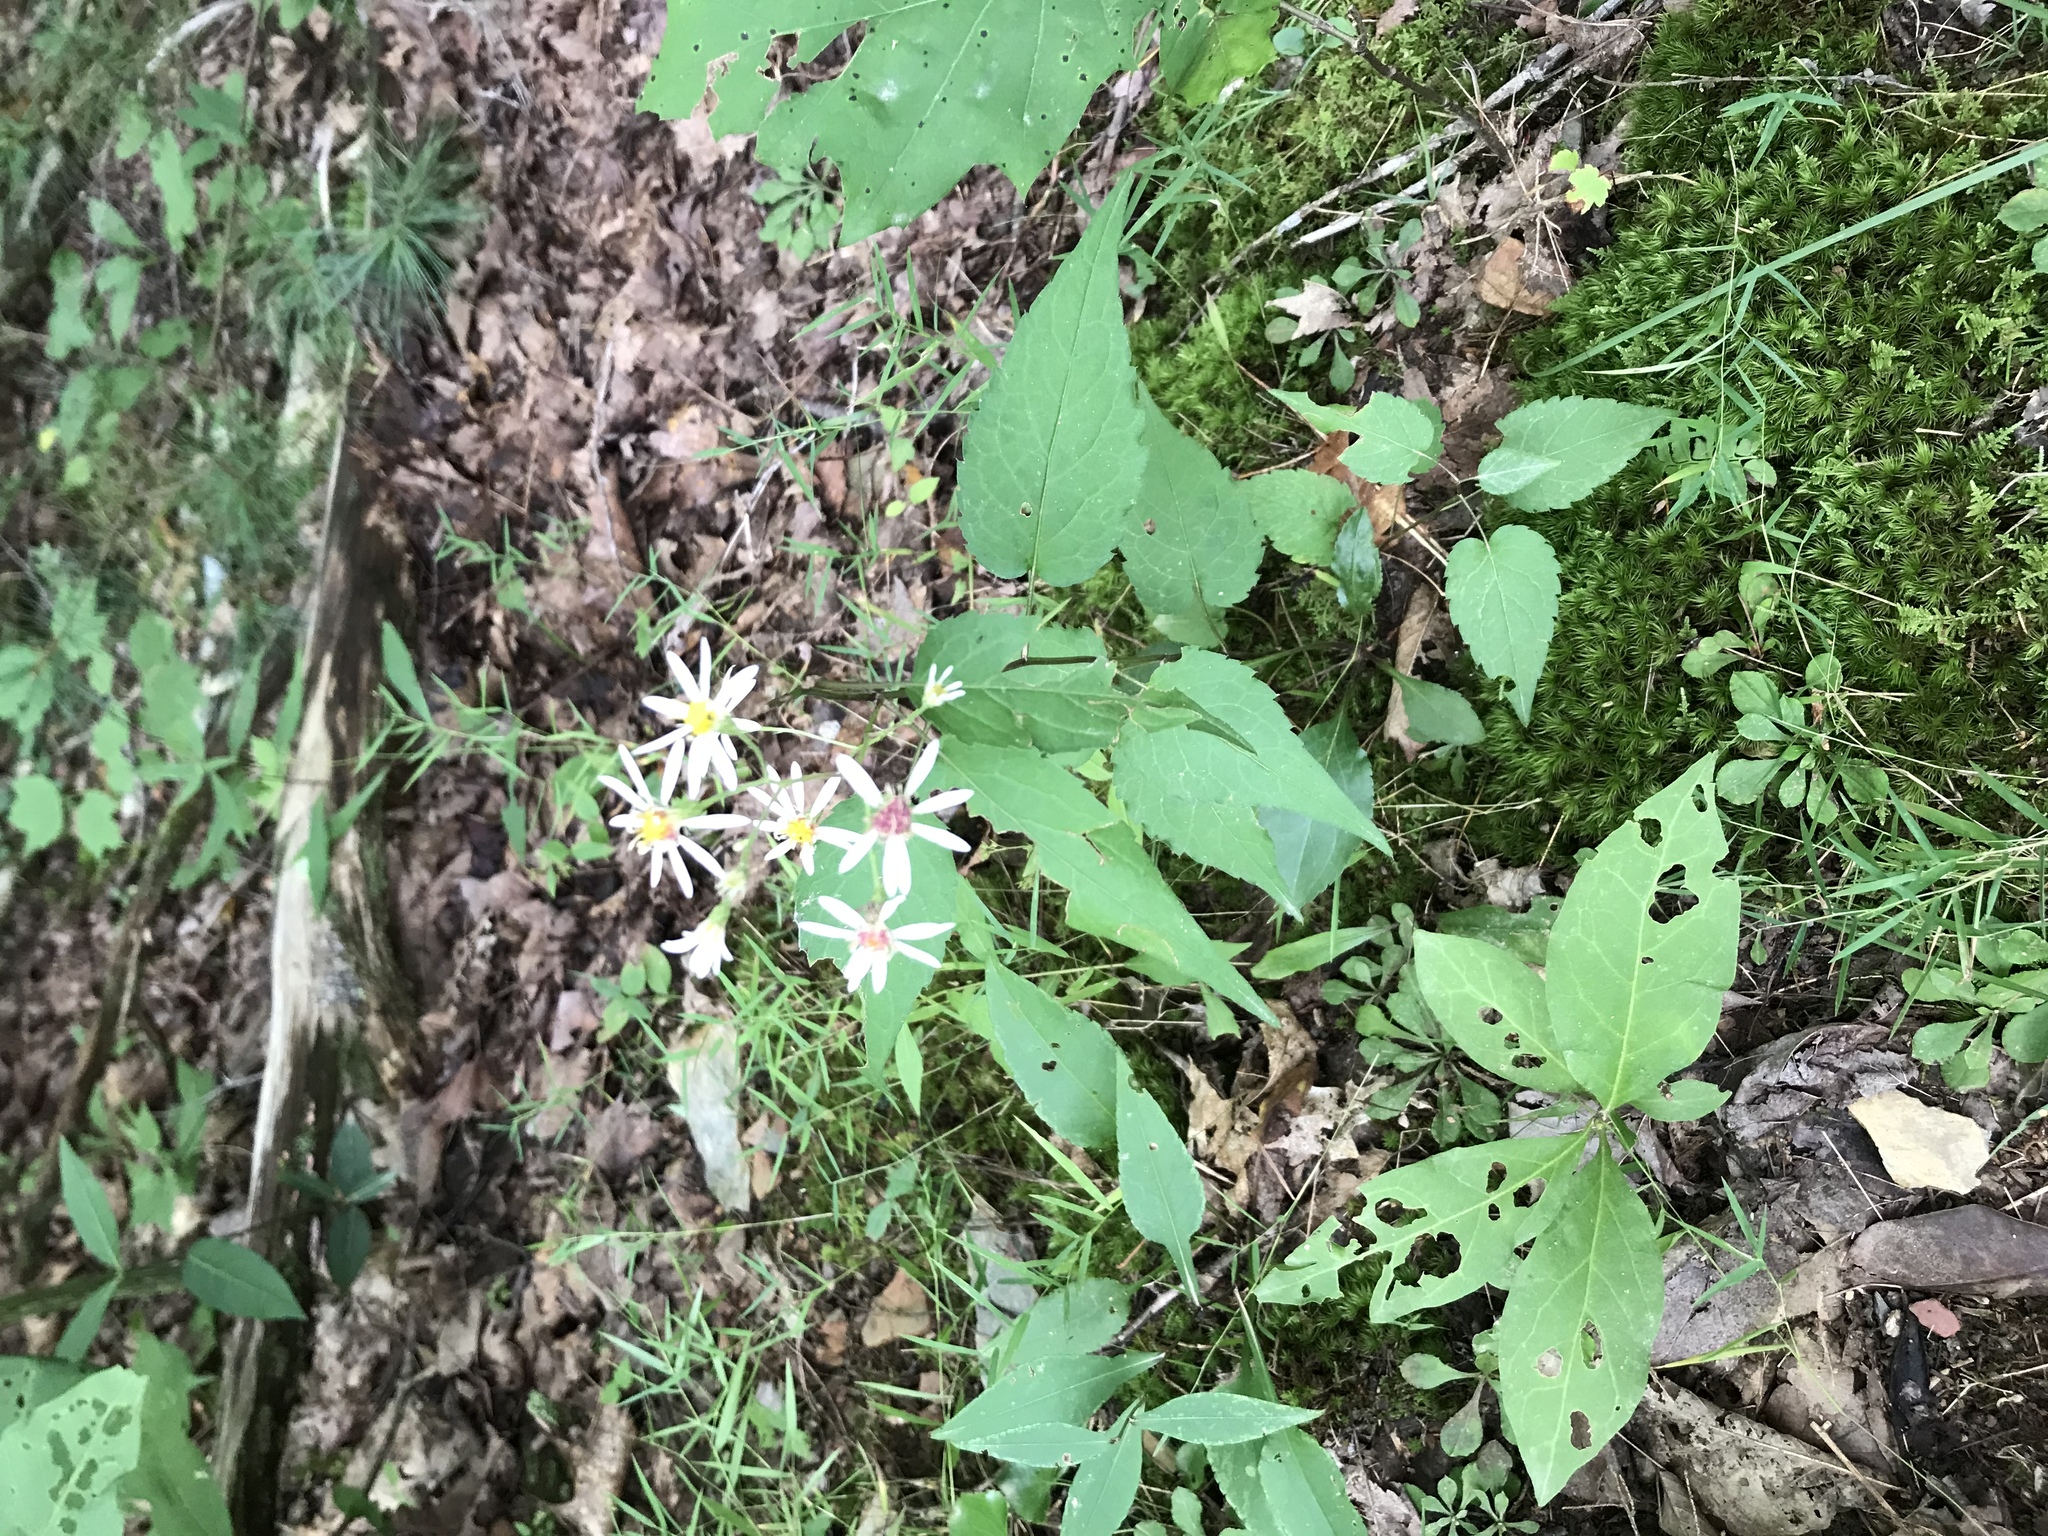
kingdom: Plantae
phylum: Tracheophyta
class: Magnoliopsida
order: Asterales
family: Asteraceae
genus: Eurybia
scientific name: Eurybia divaricata
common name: White wood aster
